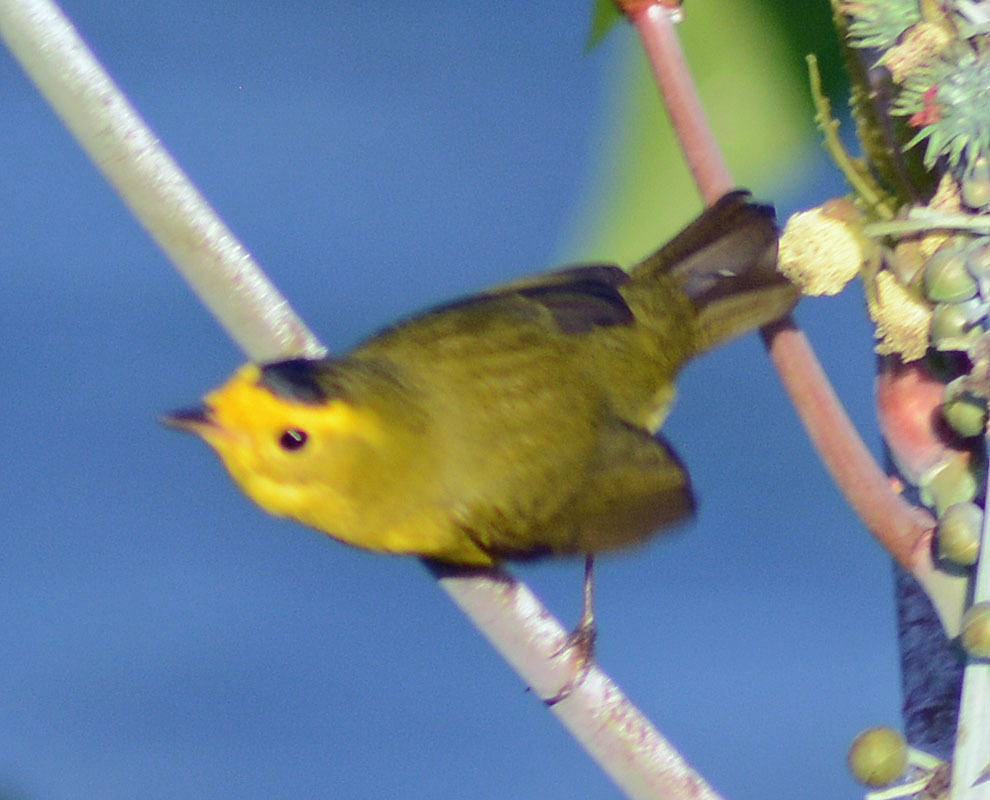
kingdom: Animalia
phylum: Chordata
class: Aves
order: Passeriformes
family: Parulidae
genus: Cardellina
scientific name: Cardellina pusilla
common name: Wilson's warbler
